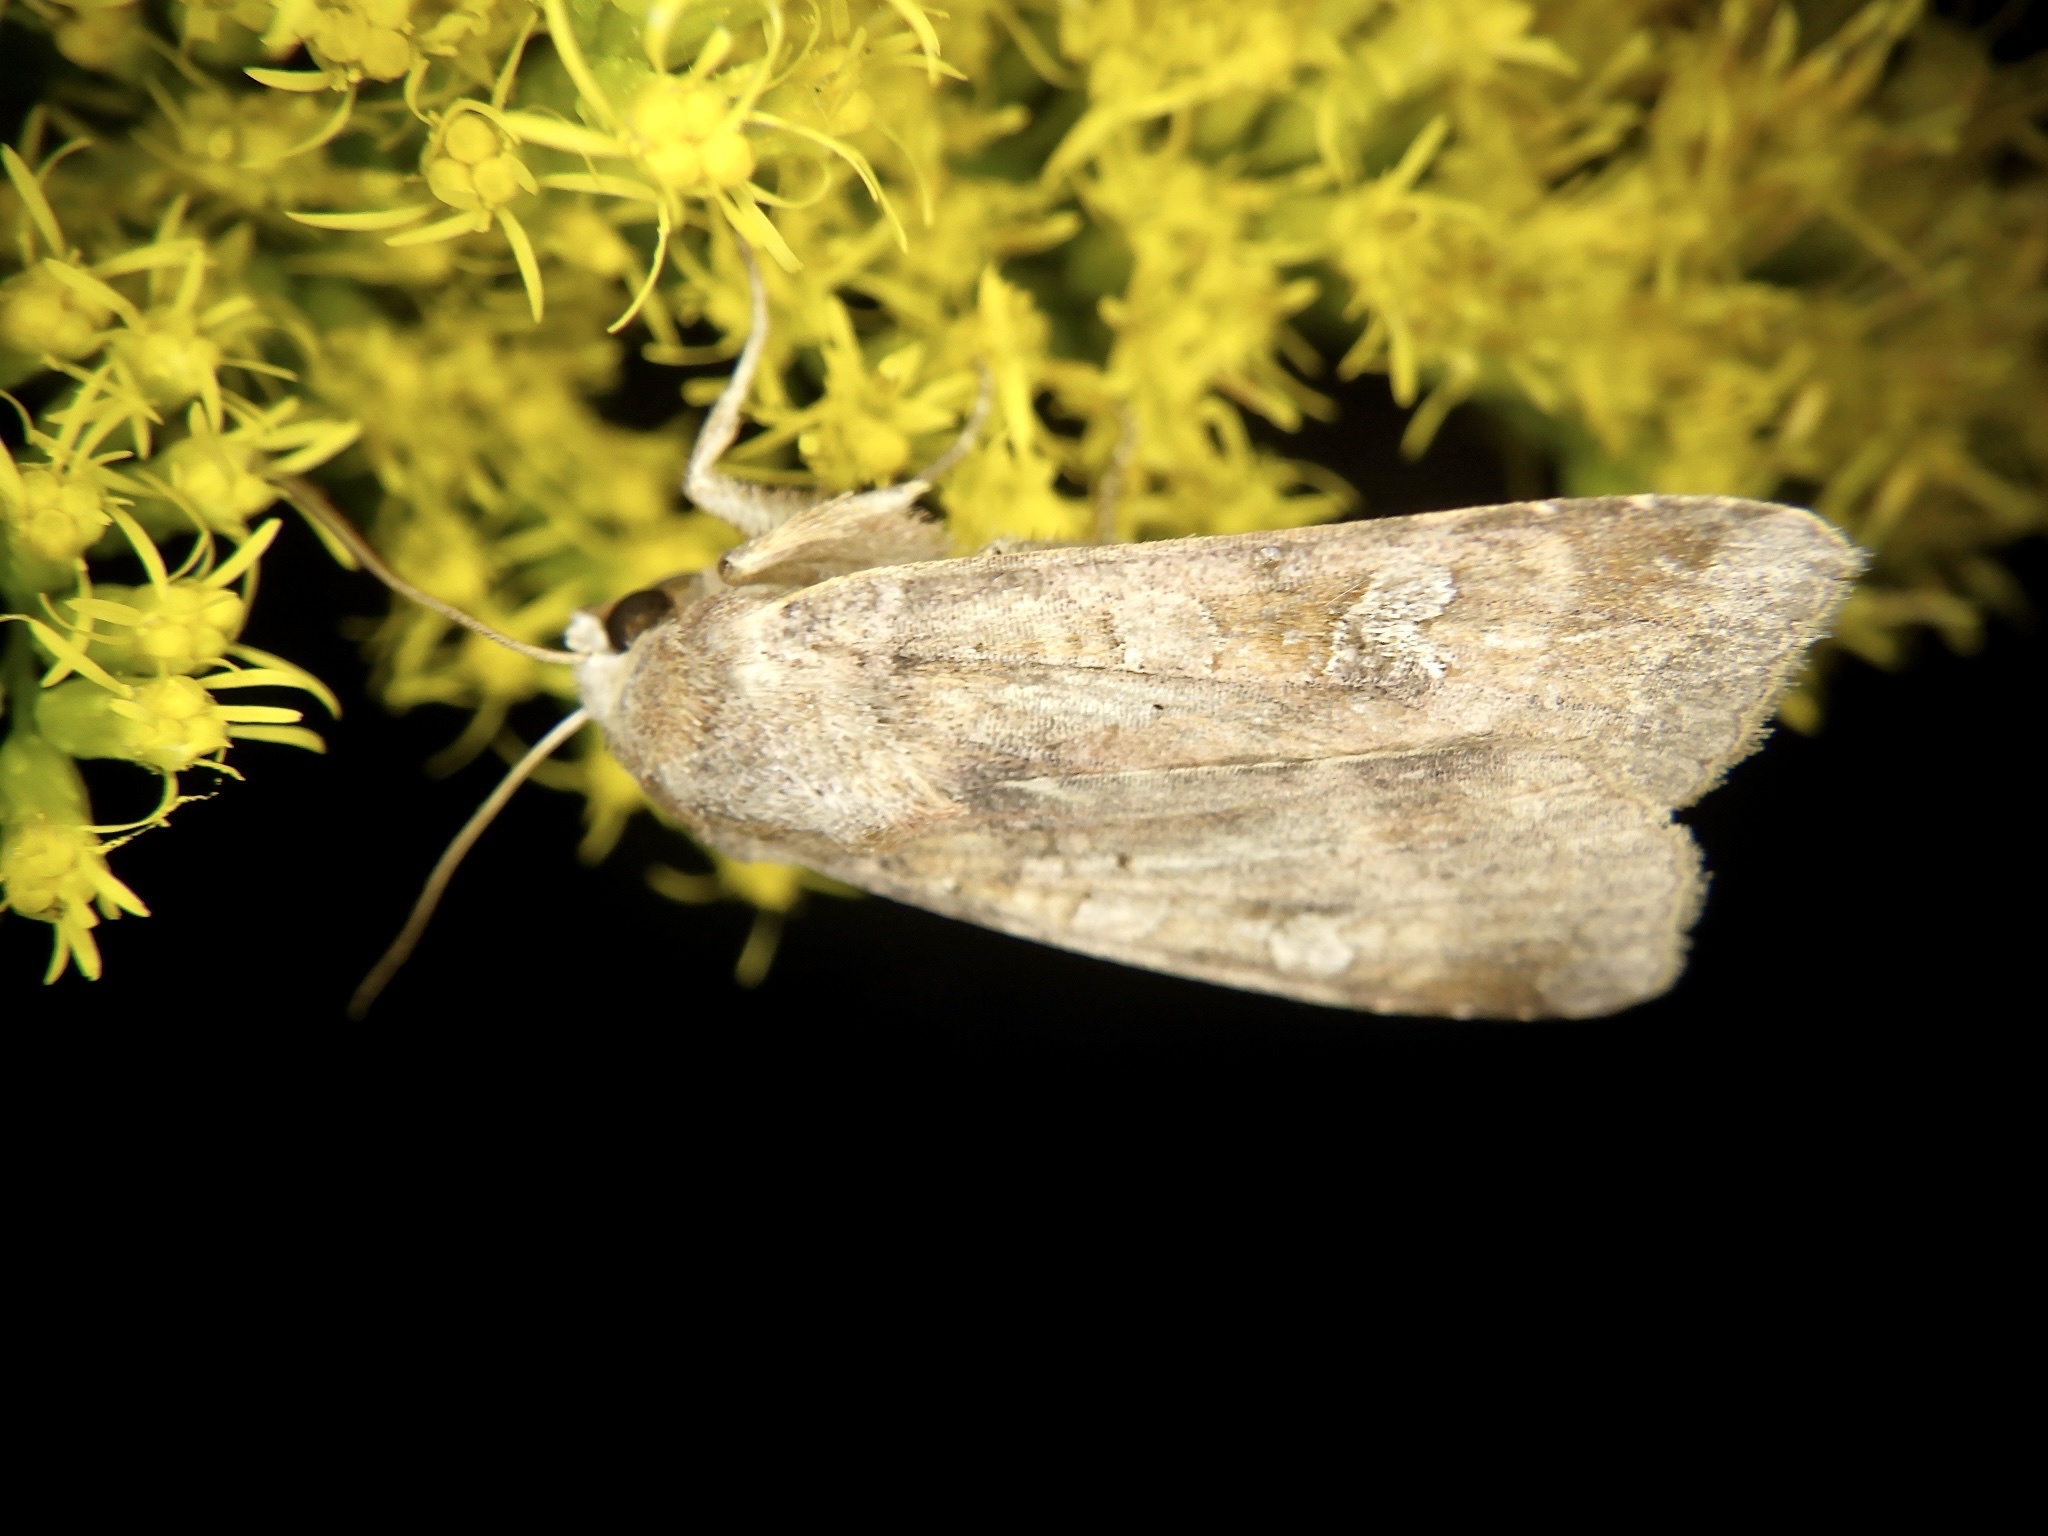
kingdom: Animalia
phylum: Arthropoda
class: Insecta
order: Lepidoptera
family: Noctuidae
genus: Diarsia
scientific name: Diarsia canescens
